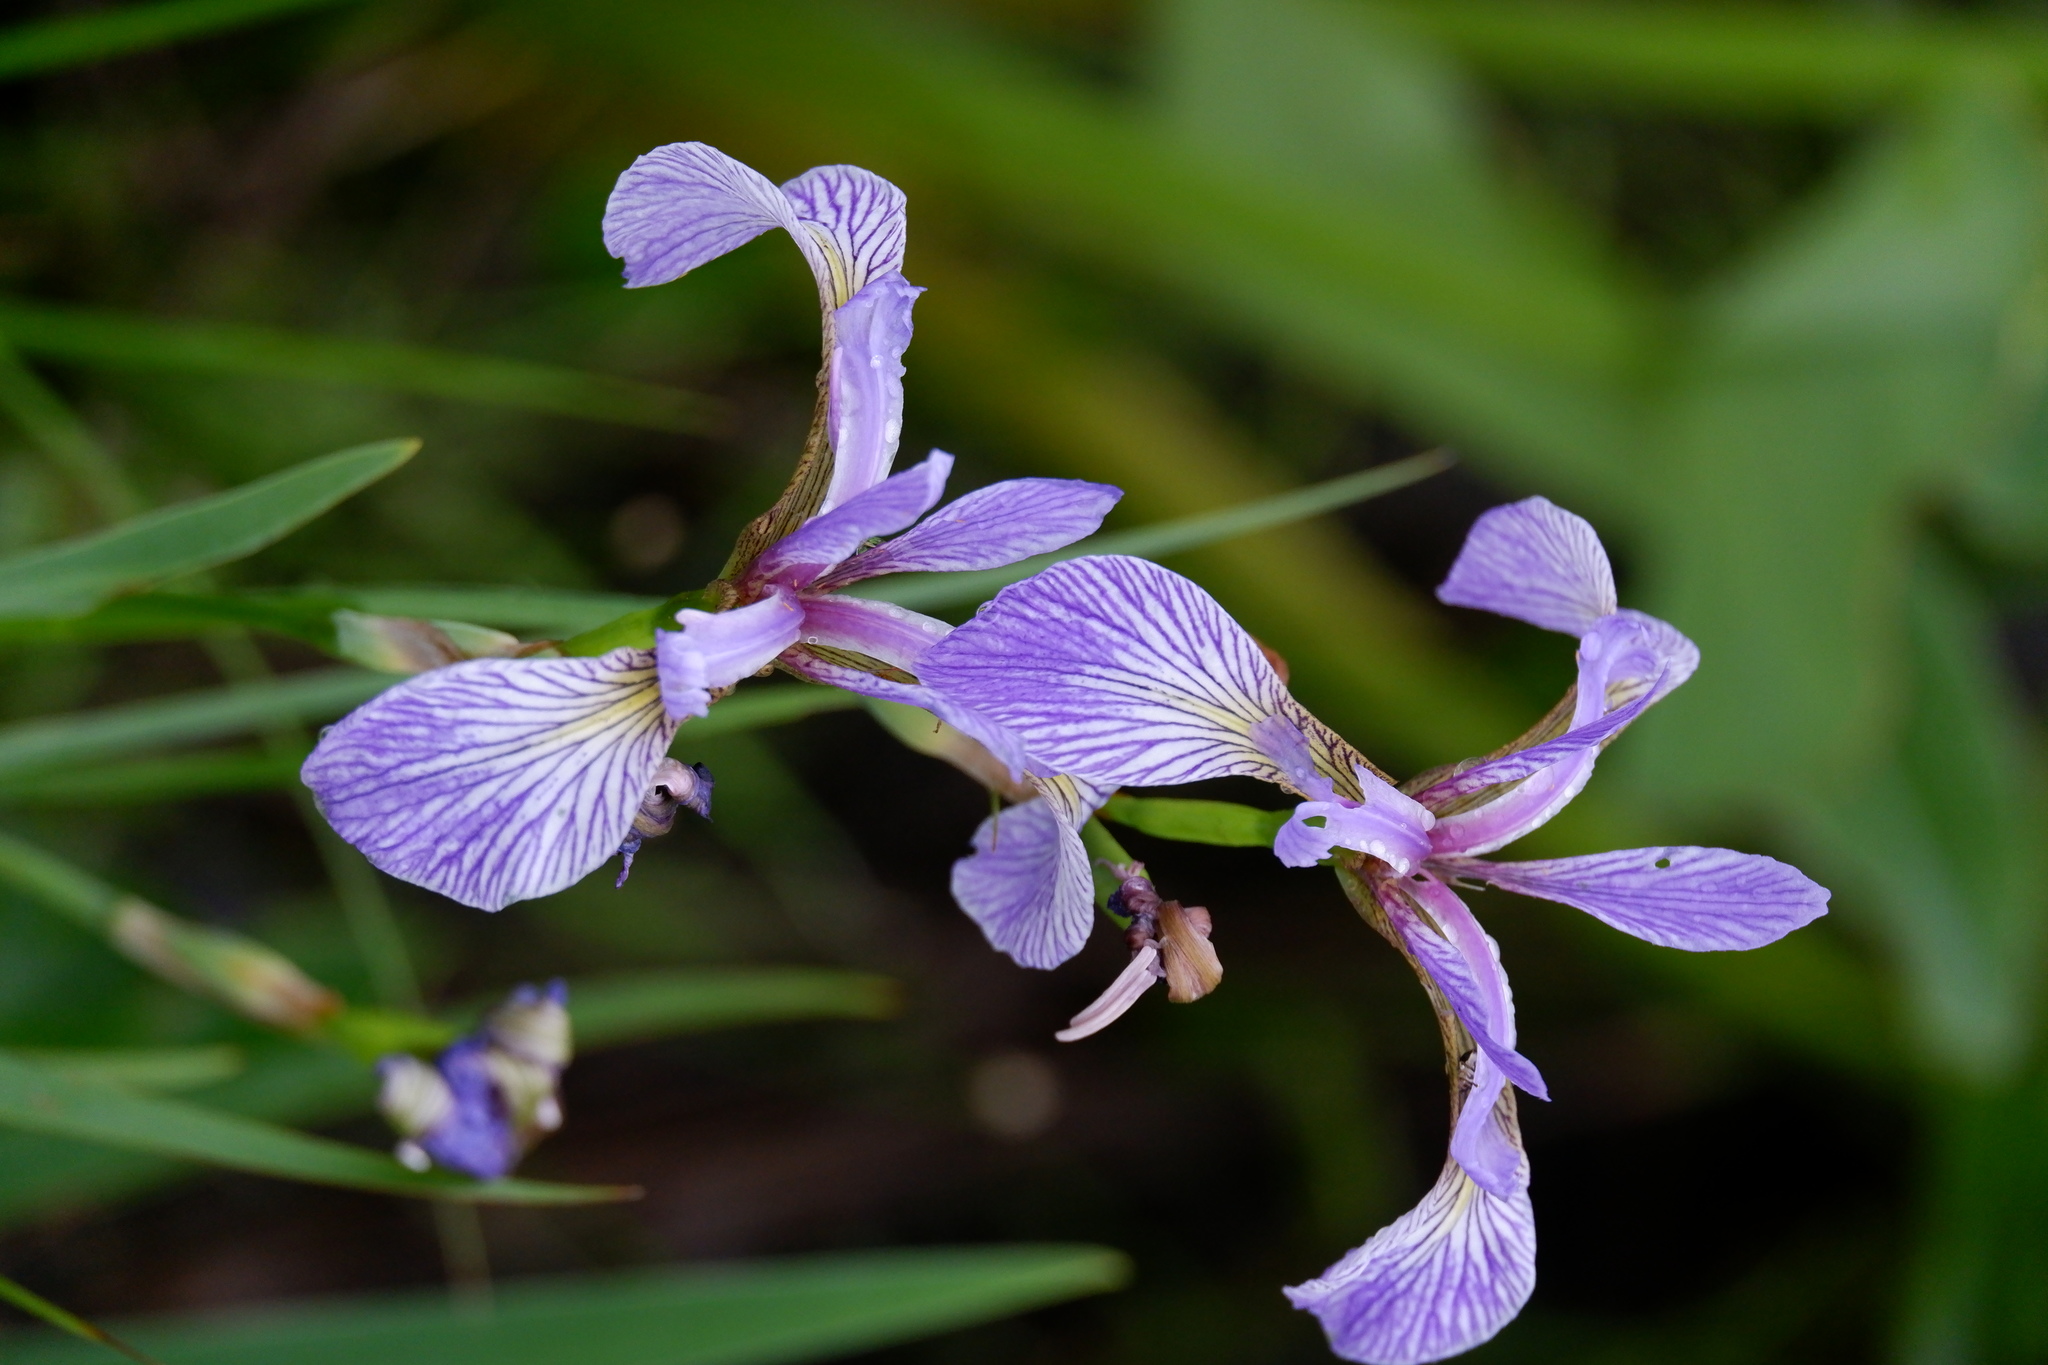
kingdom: Plantae
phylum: Tracheophyta
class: Liliopsida
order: Asparagales
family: Iridaceae
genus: Iris
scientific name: Iris versicolor
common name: Purple iris
